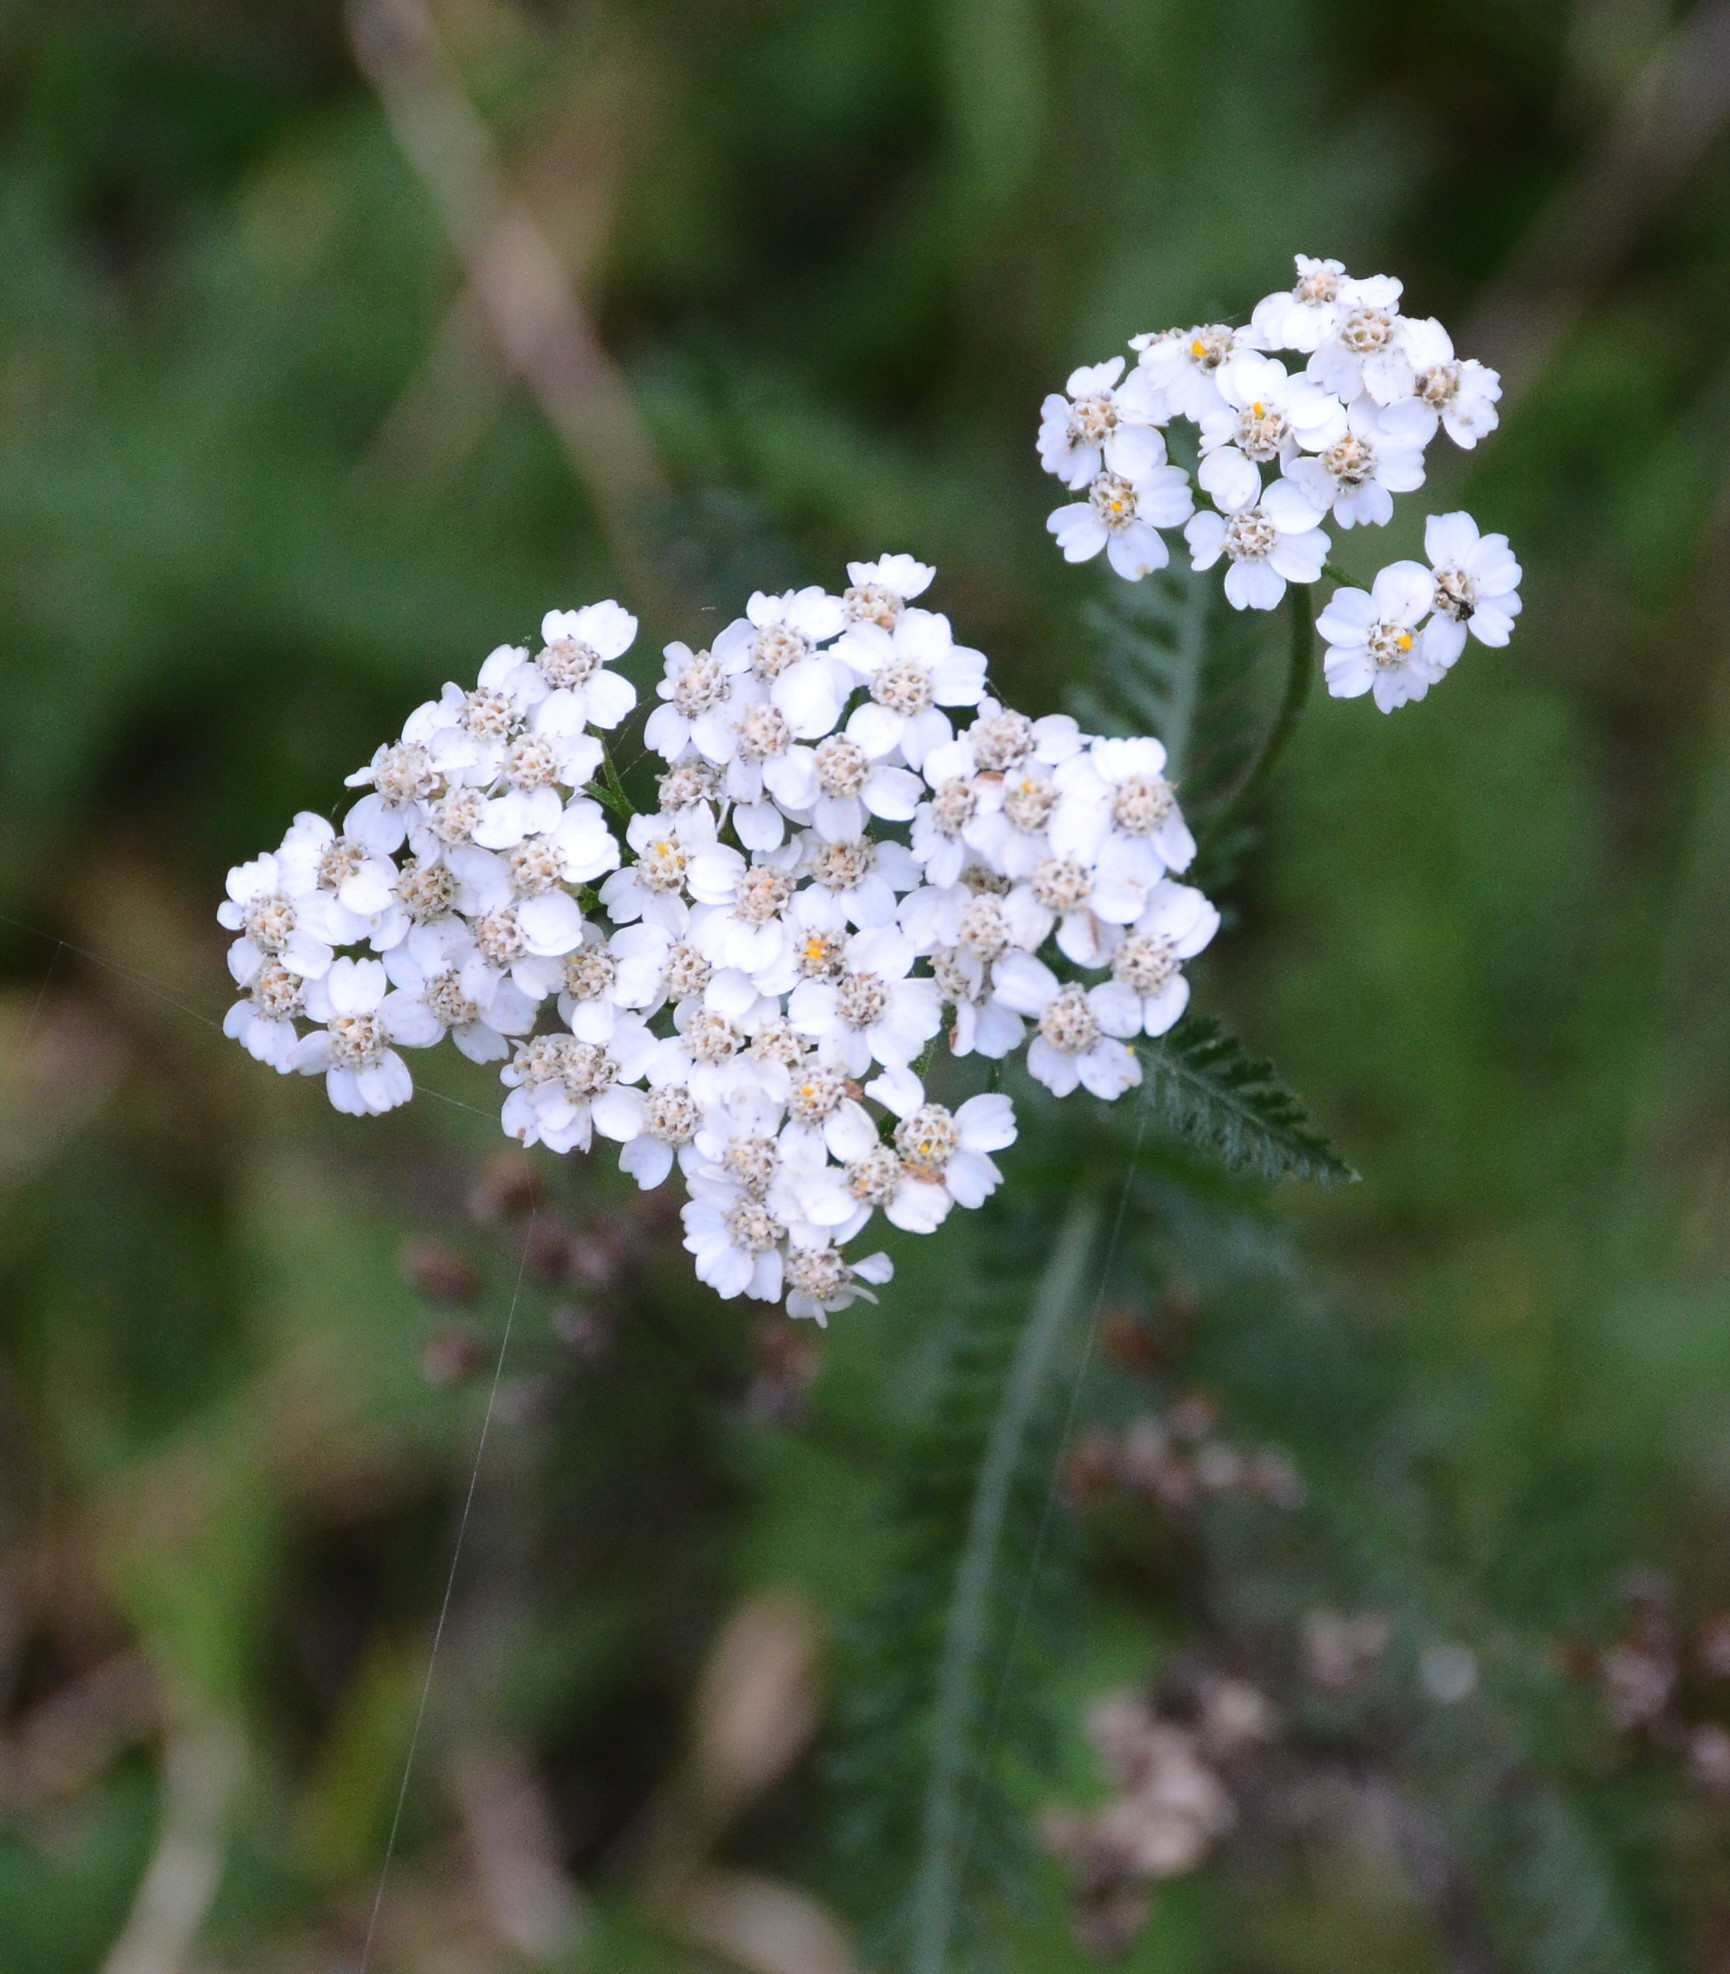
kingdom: Plantae
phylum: Tracheophyta
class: Magnoliopsida
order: Asterales
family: Asteraceae
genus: Achillea
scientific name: Achillea millefolium
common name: Yarrow
